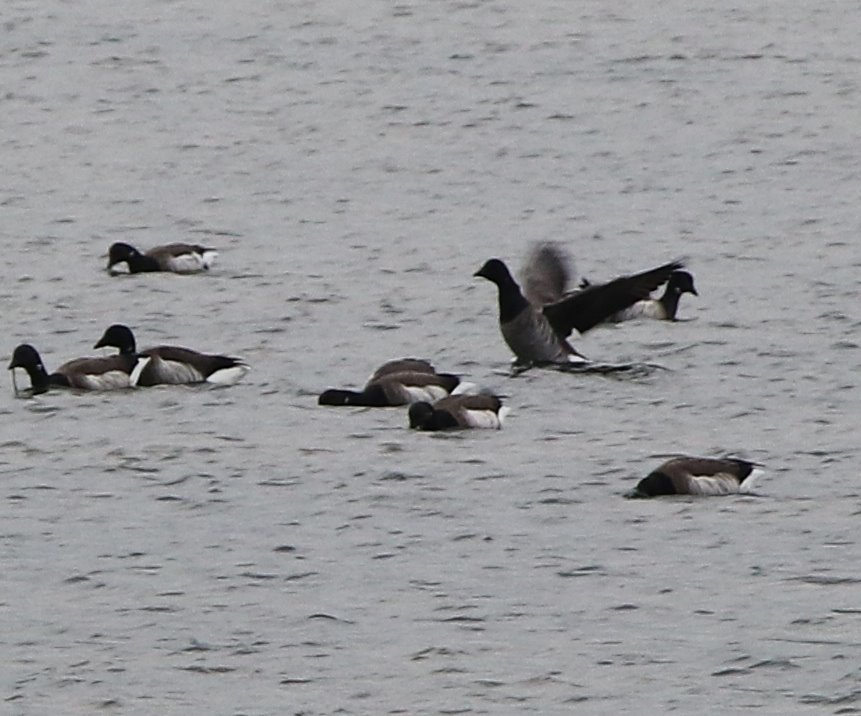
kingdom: Animalia
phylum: Chordata
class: Aves
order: Anseriformes
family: Anatidae
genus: Branta
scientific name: Branta bernicla
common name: Brant goose
